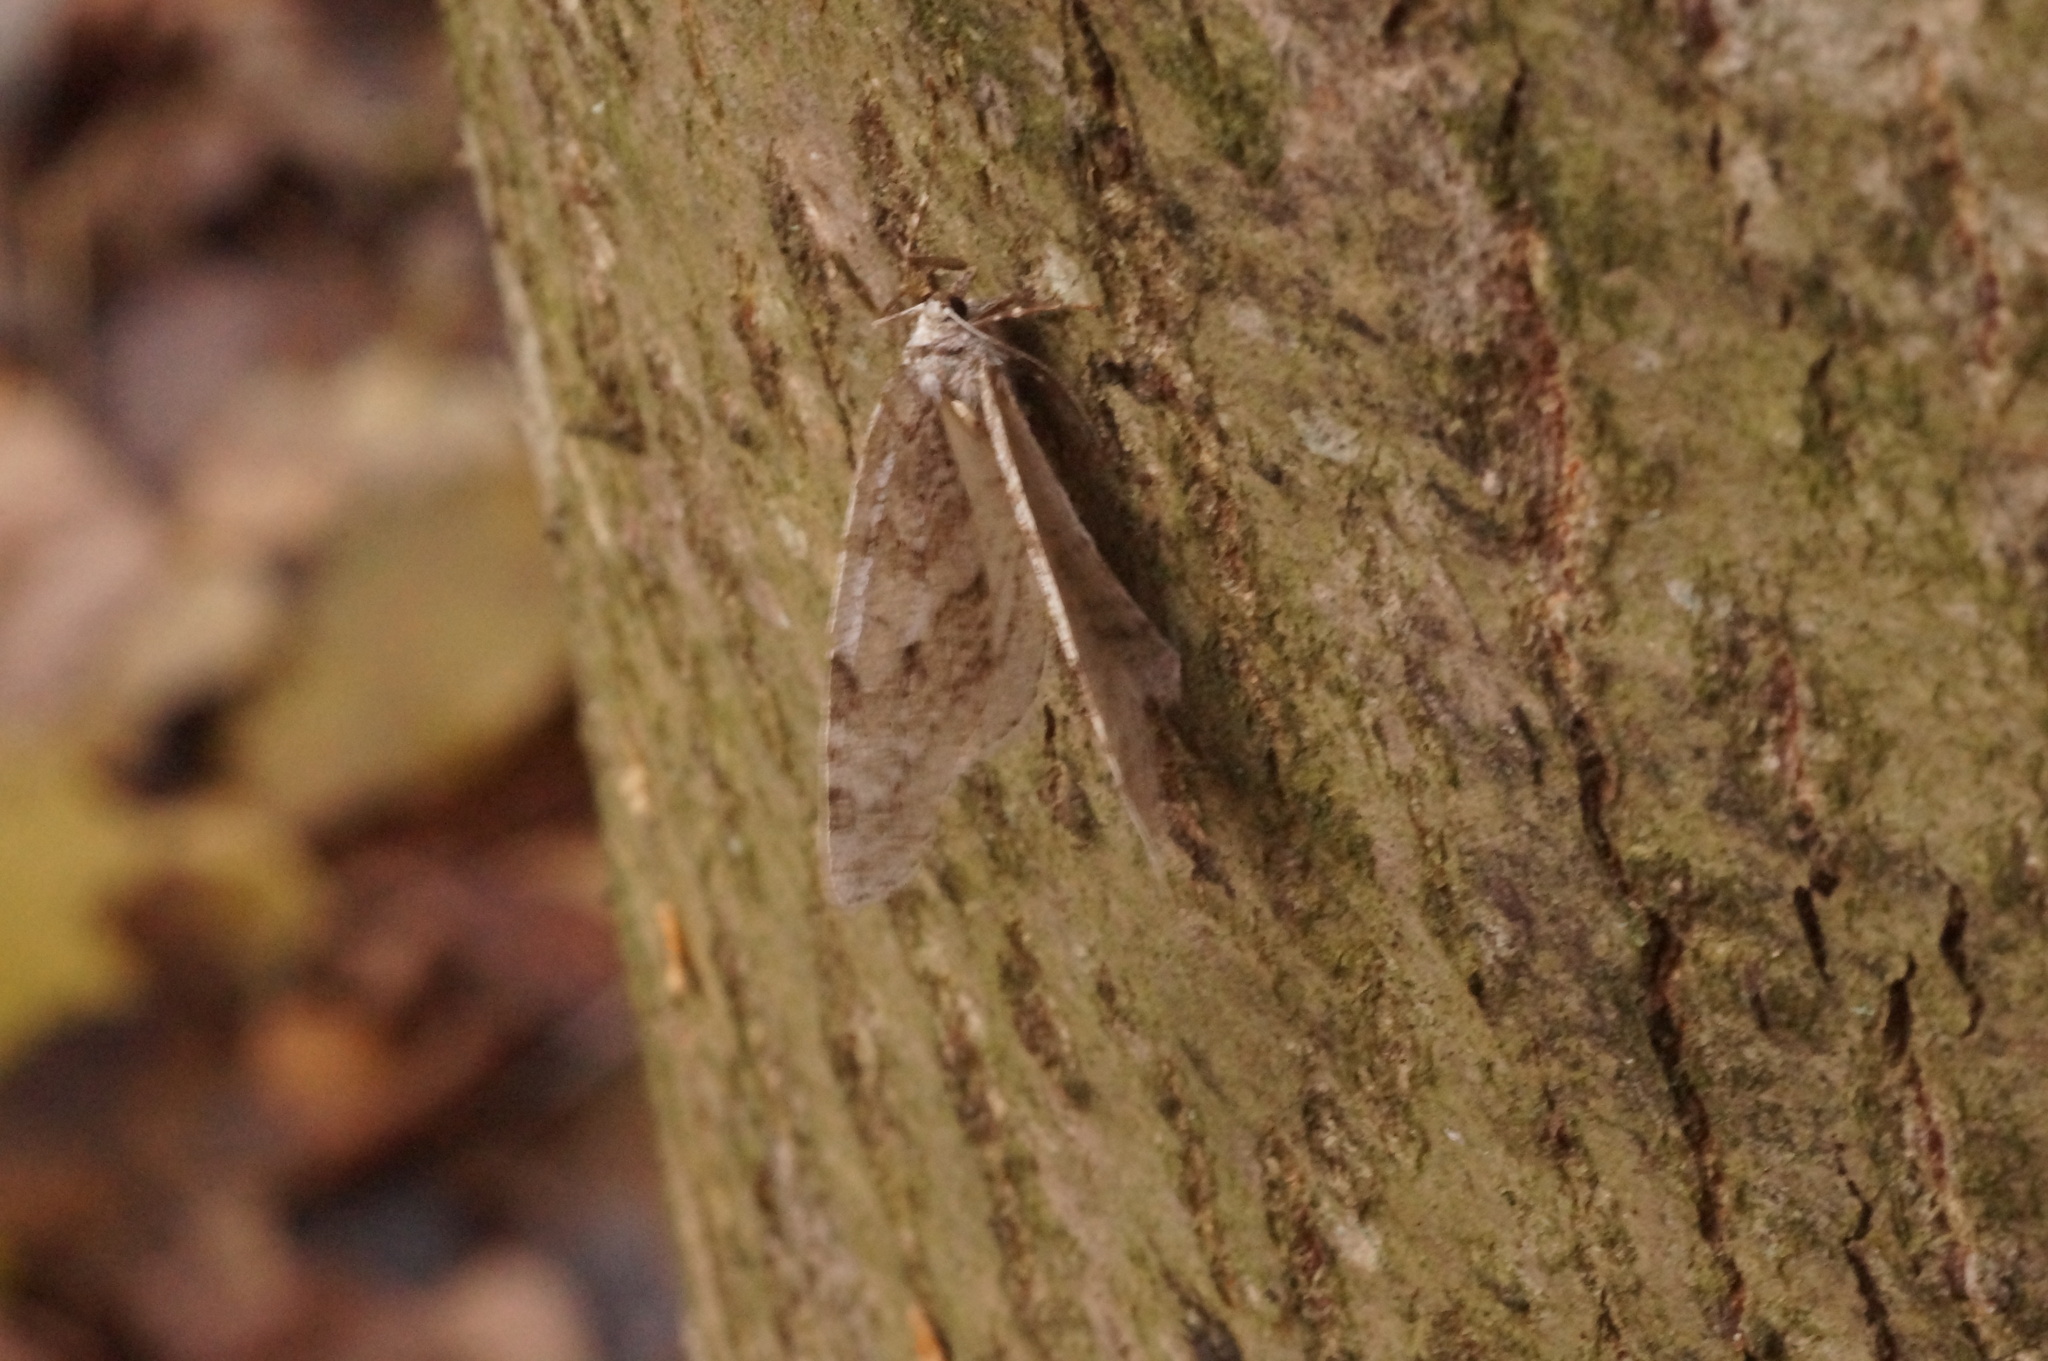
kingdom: Animalia
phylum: Arthropoda
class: Insecta
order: Lepidoptera
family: Geometridae
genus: Epirrita
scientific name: Epirrita autumnata
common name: Autumnal moth
